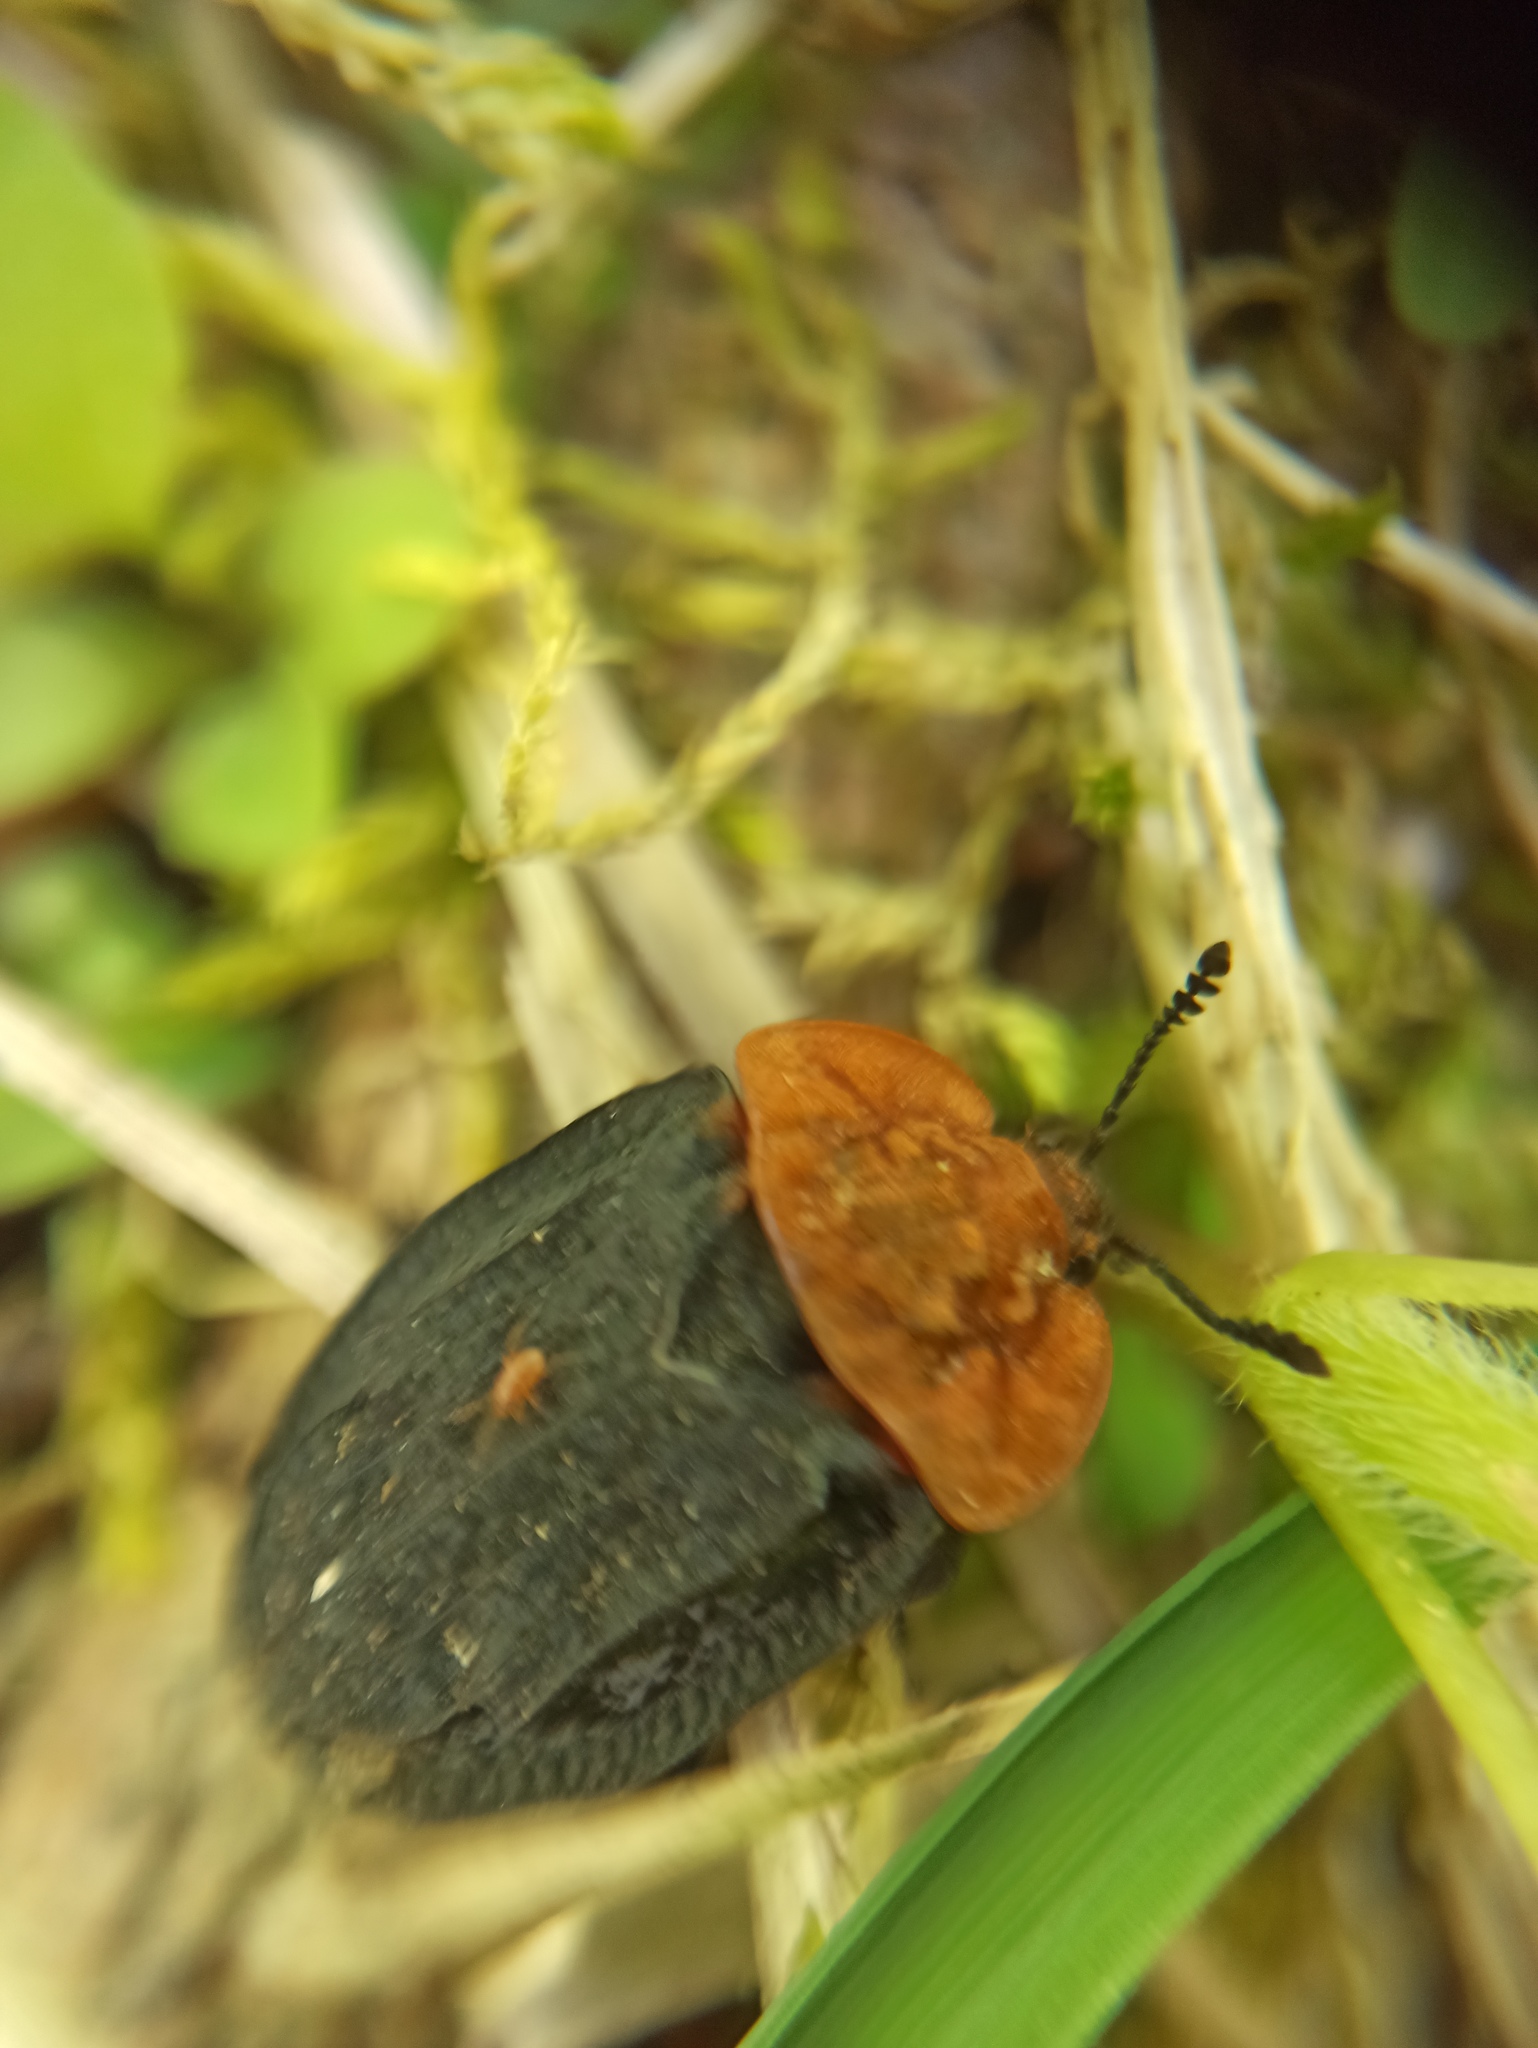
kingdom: Animalia
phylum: Arthropoda
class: Insecta
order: Coleoptera
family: Staphylinidae
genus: Oiceoptoma
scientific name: Oiceoptoma thoracicum
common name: Red-breasted carrion beetle
